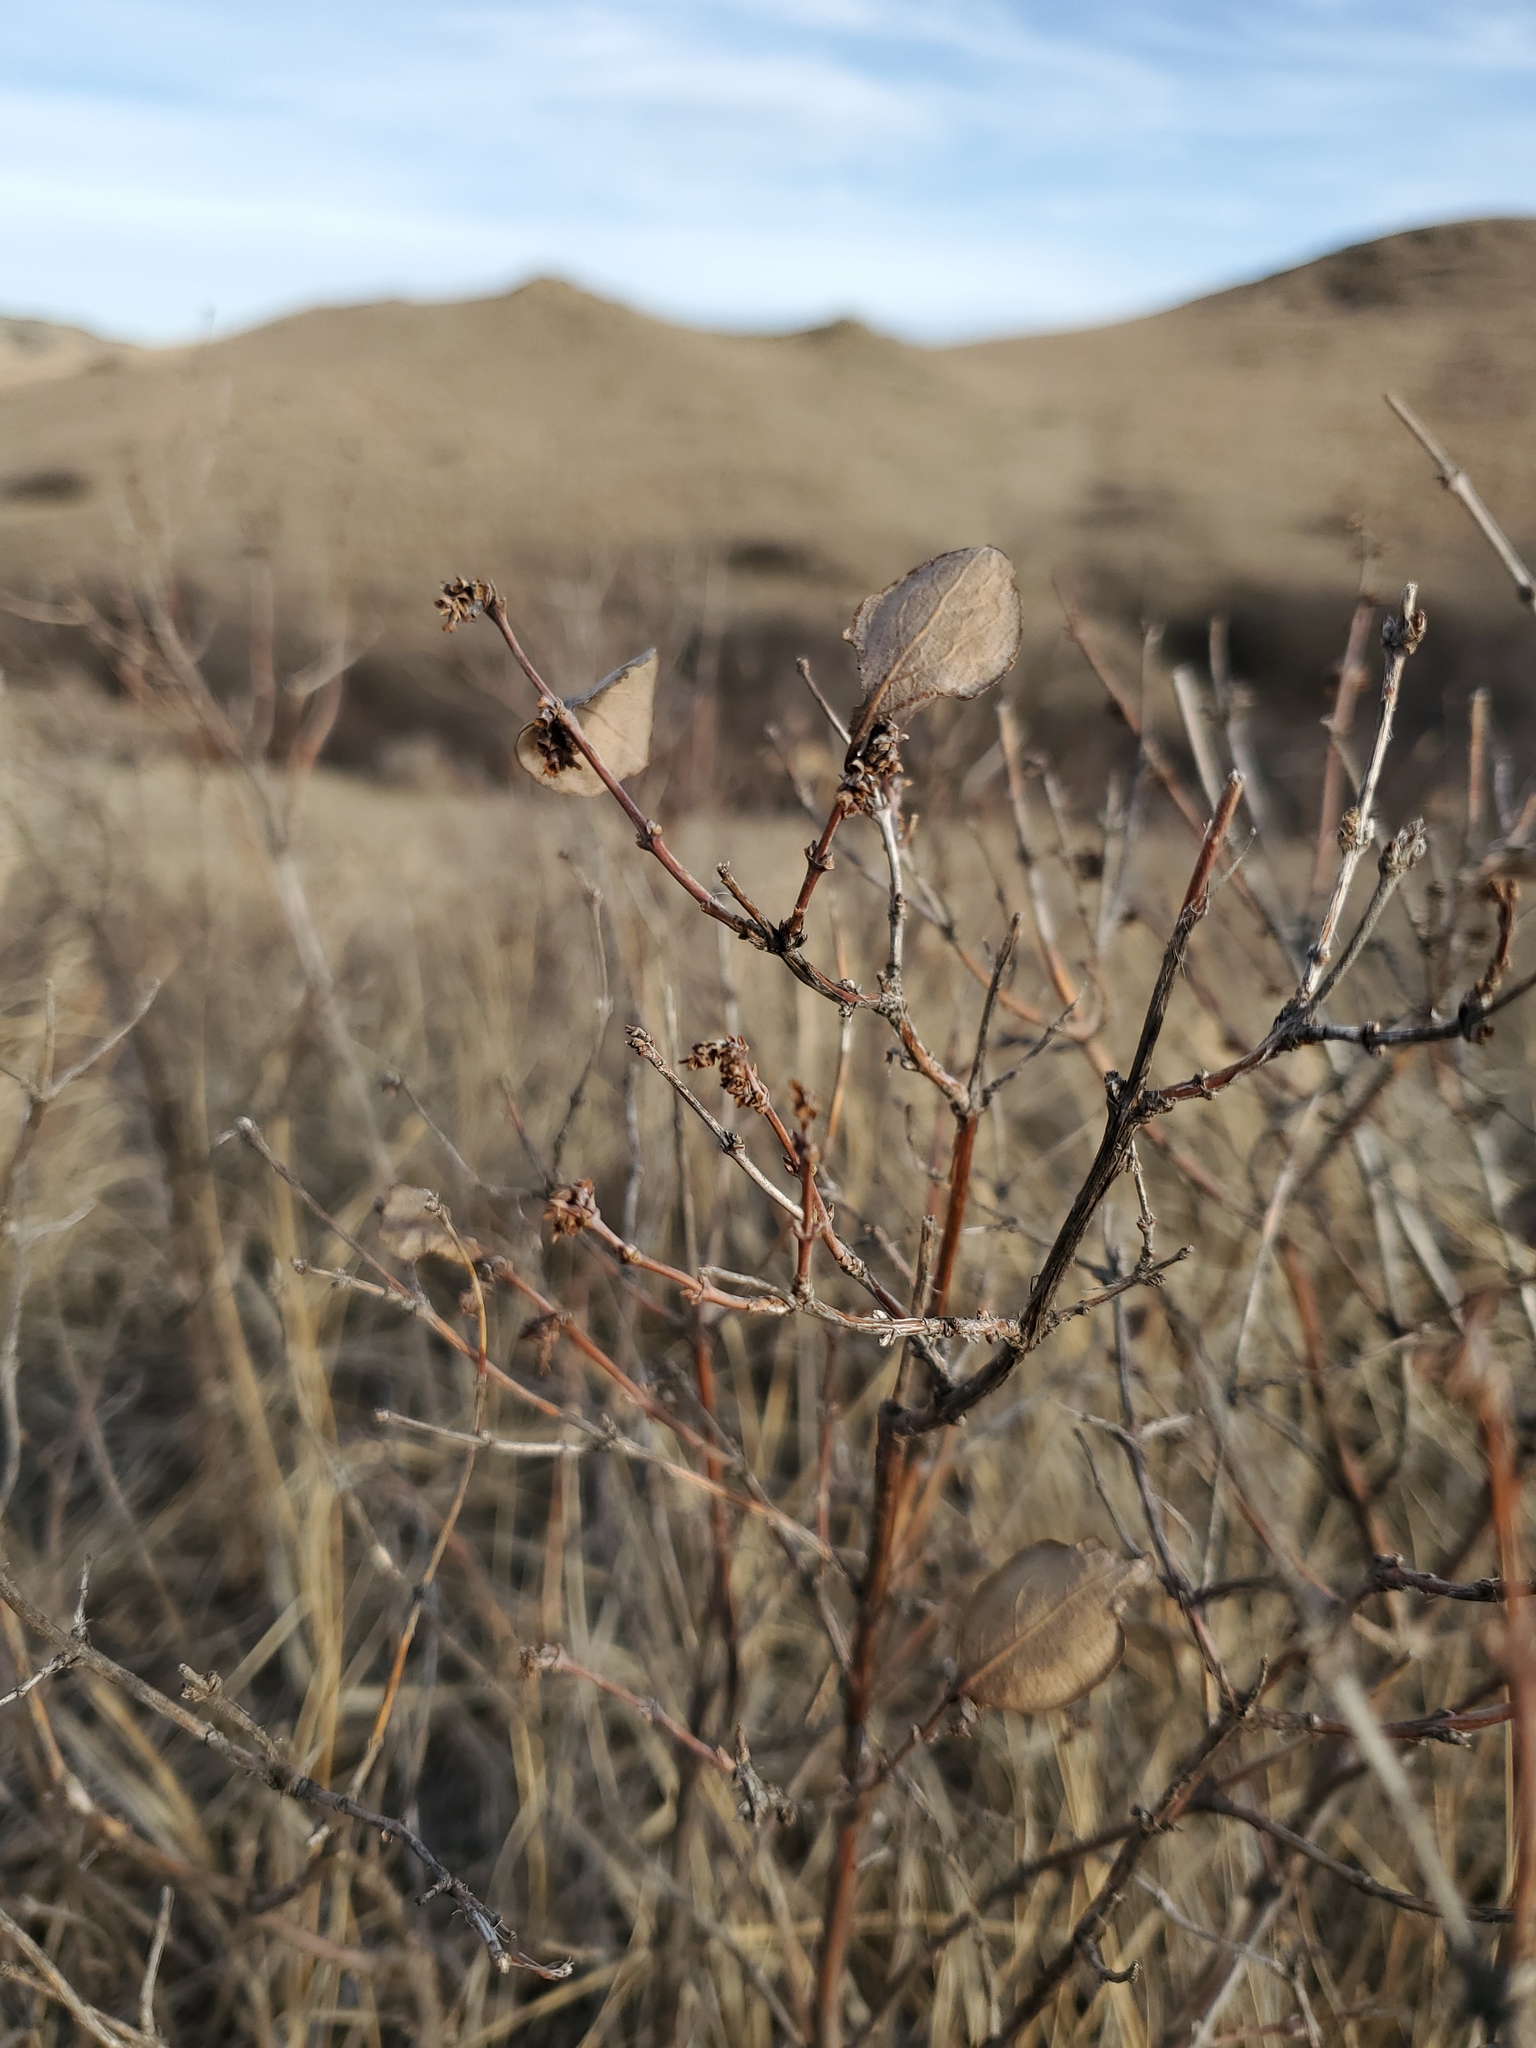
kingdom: Plantae
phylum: Tracheophyta
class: Magnoliopsida
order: Dipsacales
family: Caprifoliaceae
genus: Symphoricarpos
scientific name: Symphoricarpos occidentalis
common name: Wolfberry
